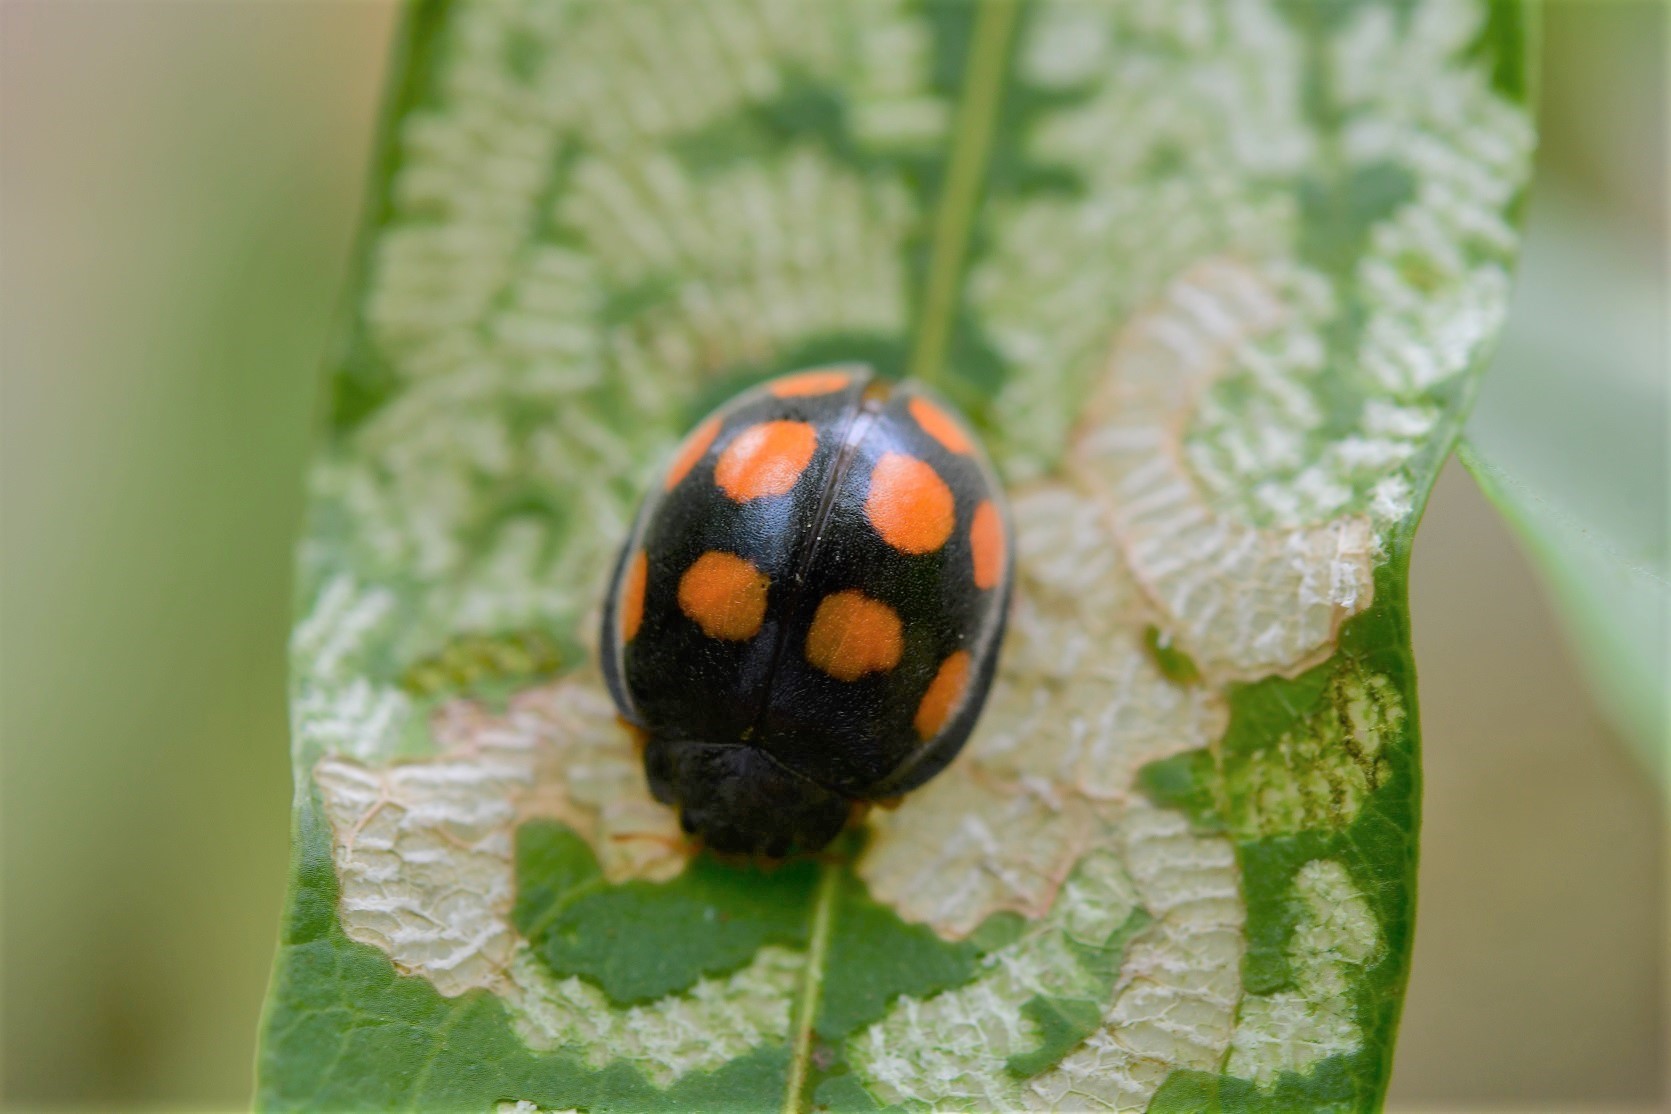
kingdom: Animalia
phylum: Arthropoda
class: Insecta
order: Coleoptera
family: Coccinellidae
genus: Epilachna
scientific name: Epilachna
